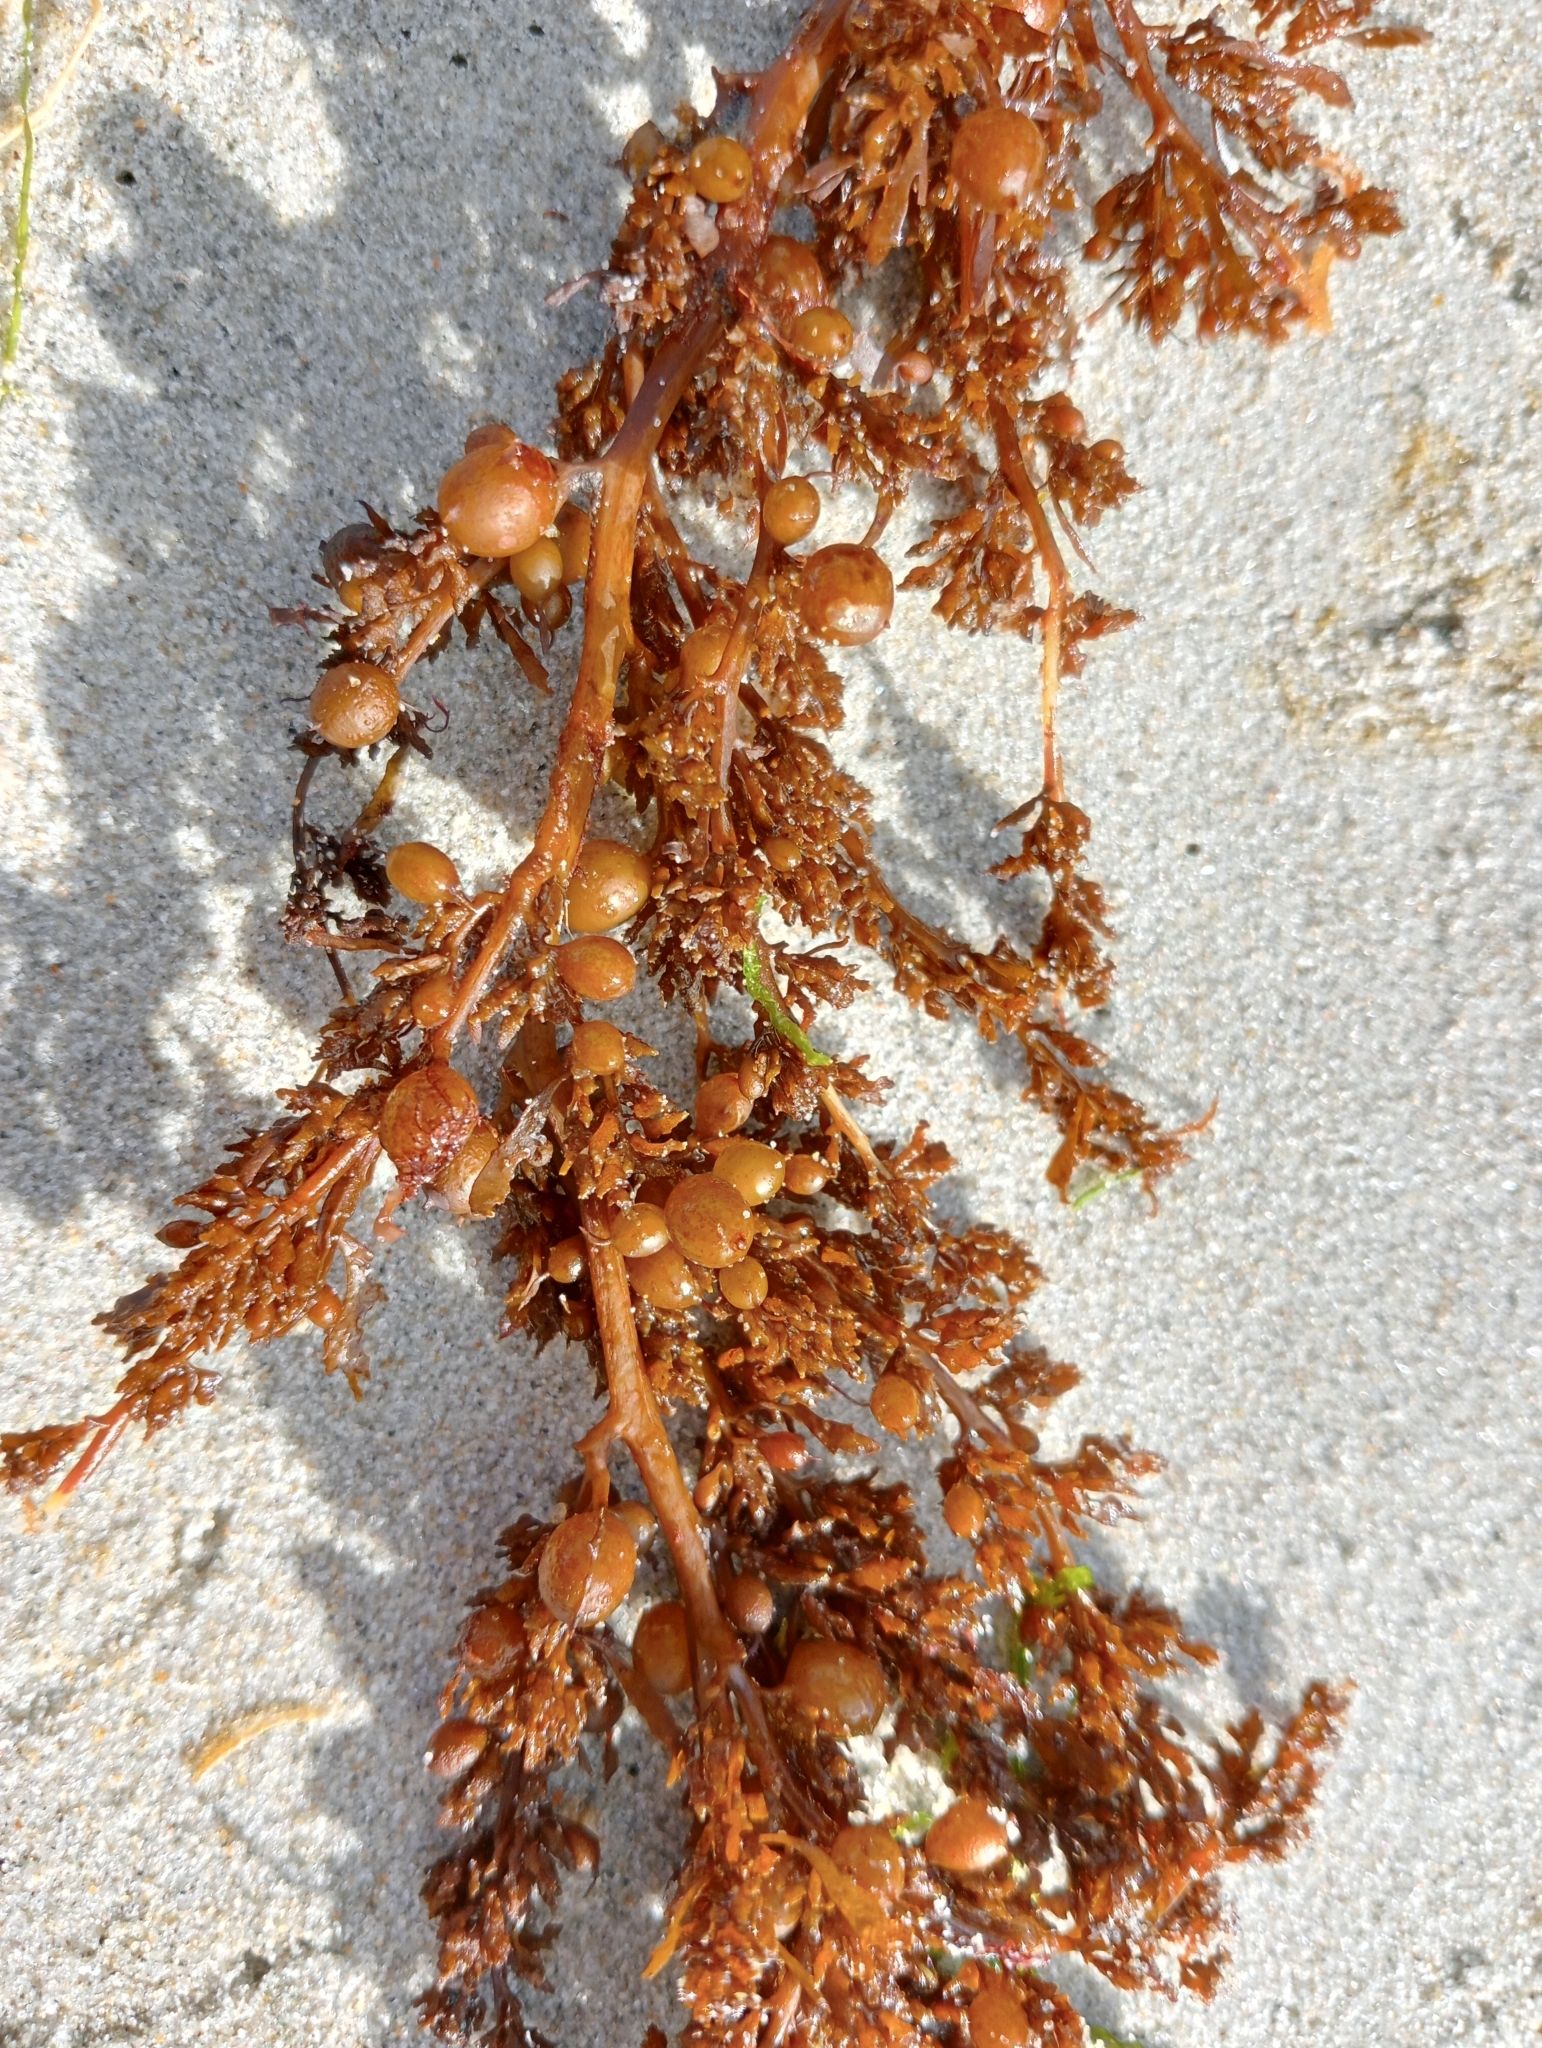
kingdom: Chromista
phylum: Ochrophyta
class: Phaeophyceae
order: Fucales
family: Sargassaceae
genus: Sargassum
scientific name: Sargassum sinclairii
